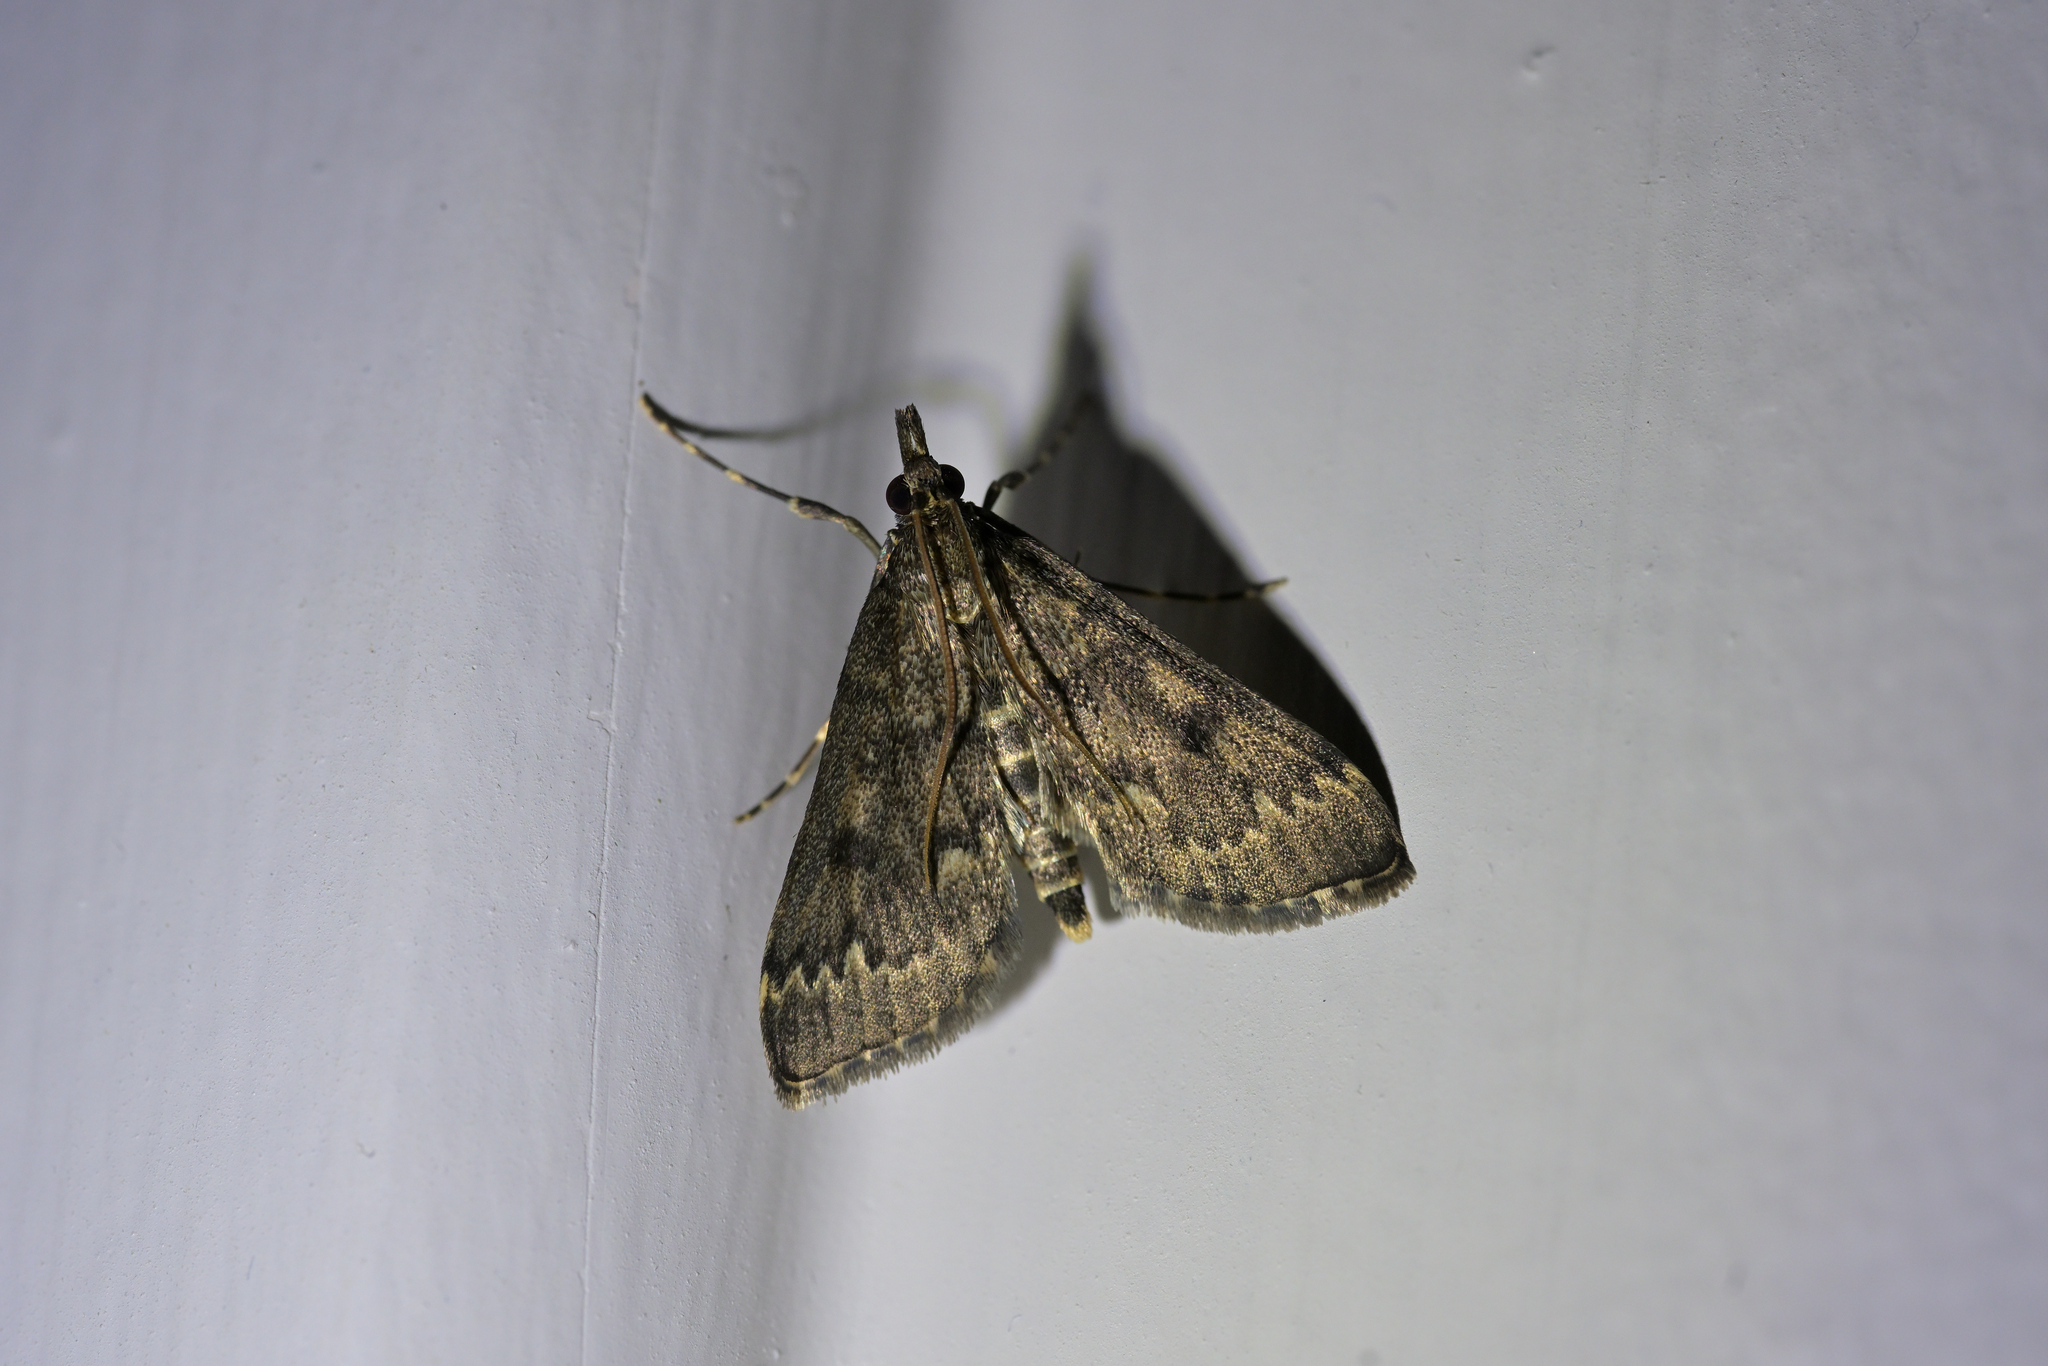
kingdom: Animalia
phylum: Arthropoda
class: Insecta
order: Lepidoptera
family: Crambidae
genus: Loxostege
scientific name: Loxostege Proternia philocapna
